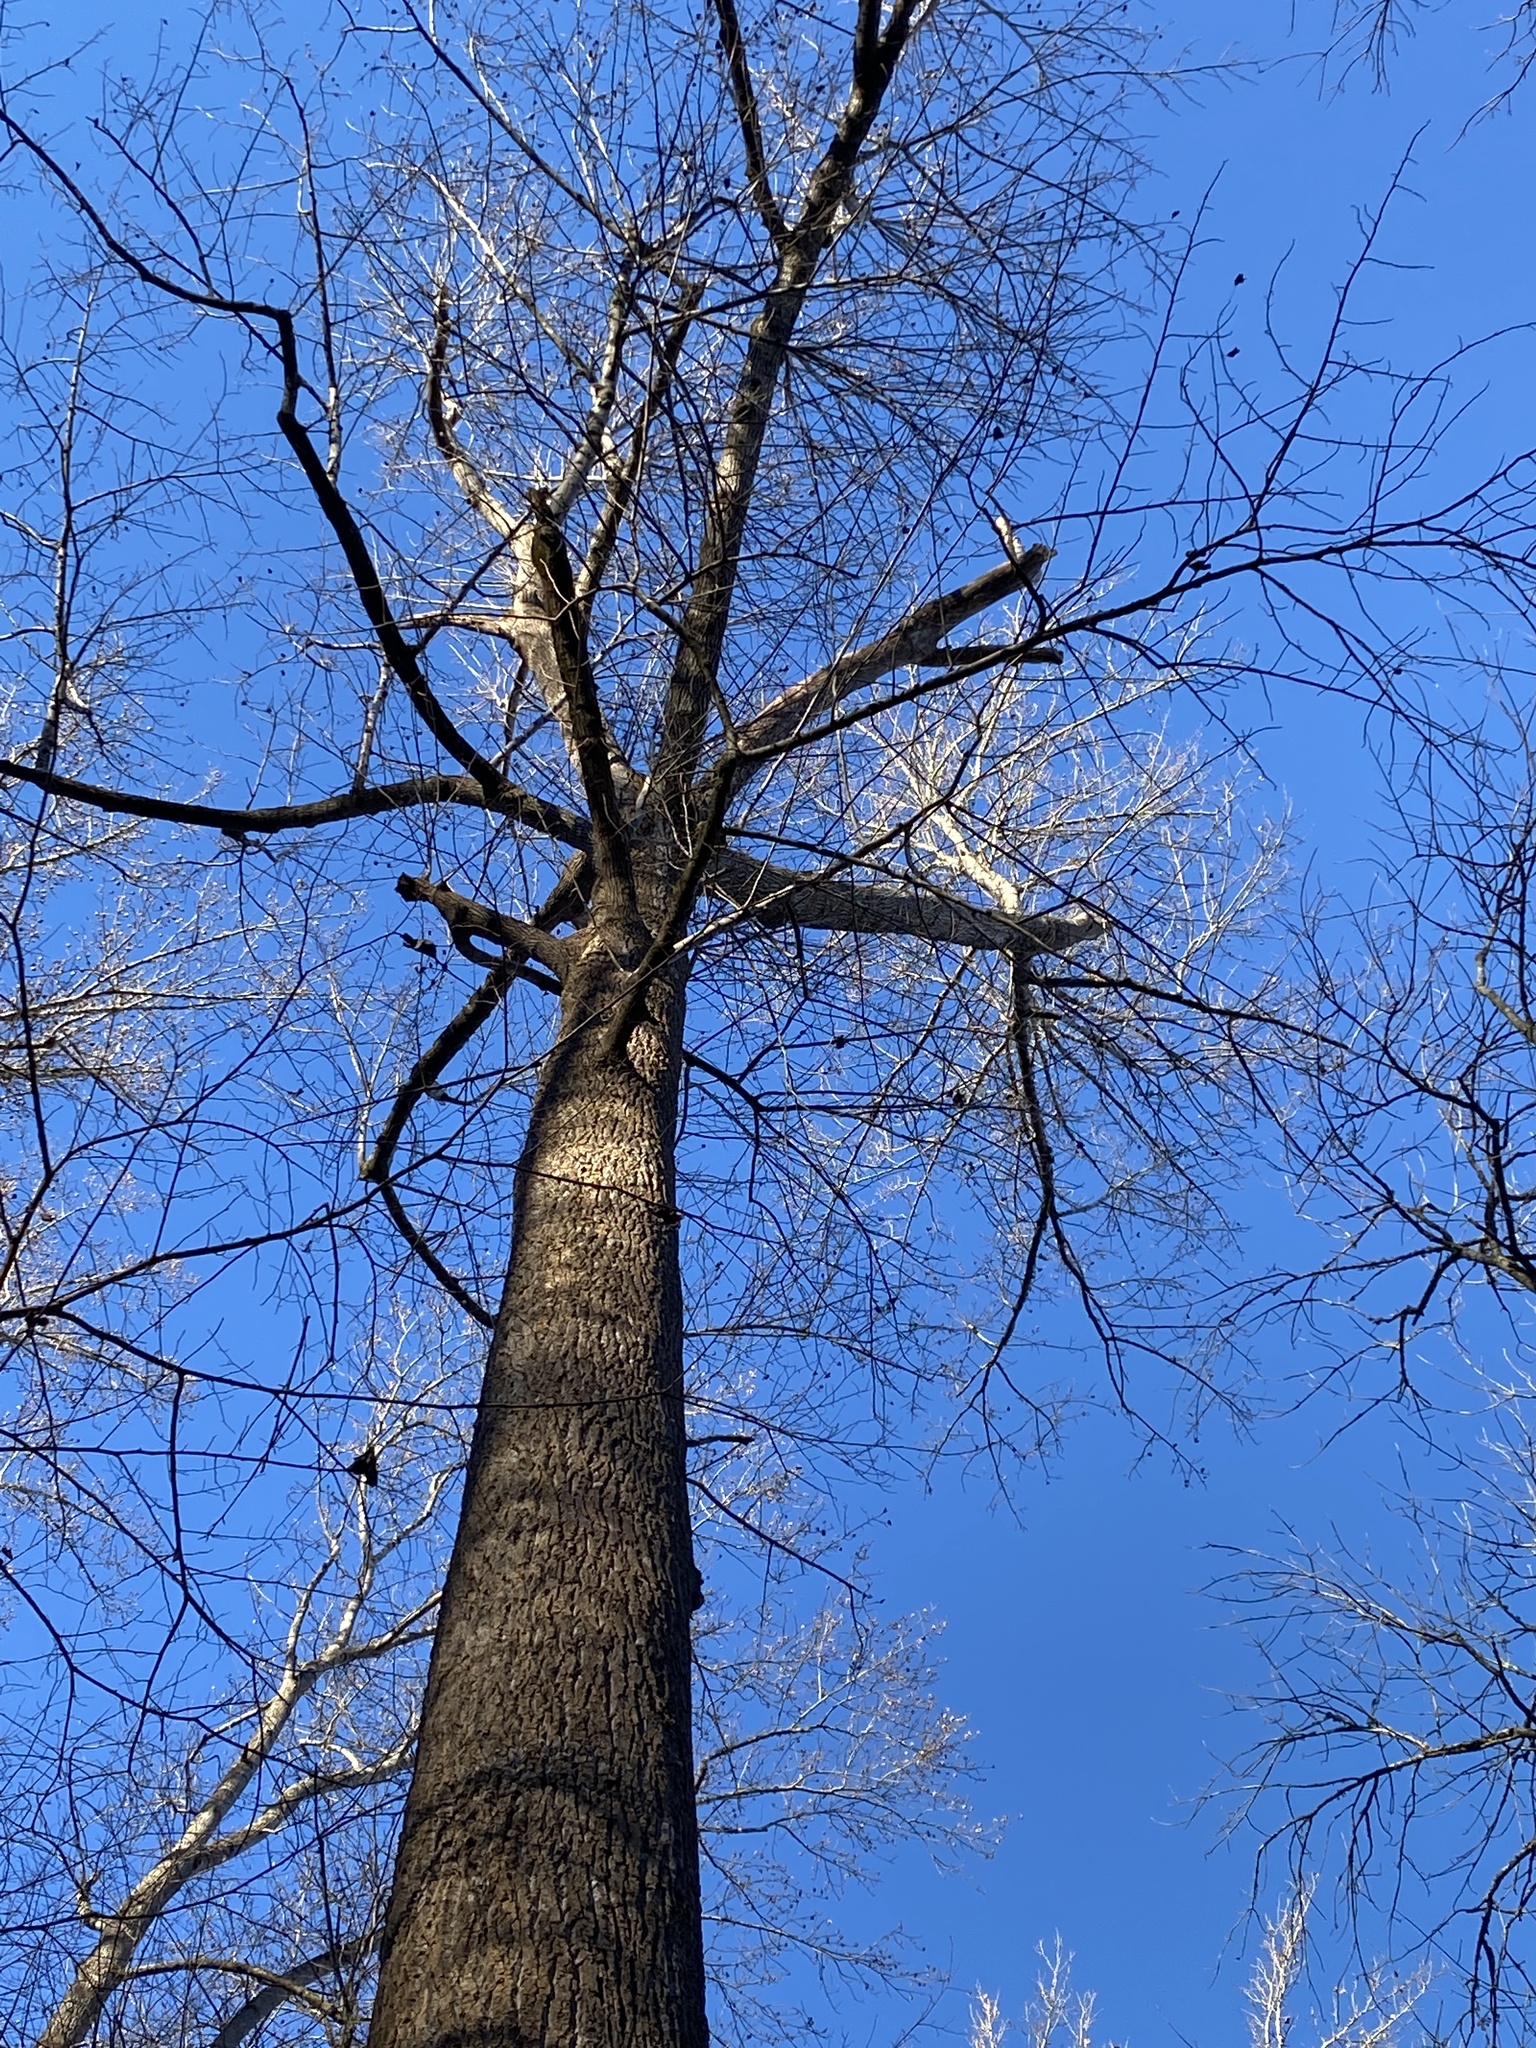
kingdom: Plantae
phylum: Tracheophyta
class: Magnoliopsida
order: Magnoliales
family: Magnoliaceae
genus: Liriodendron
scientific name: Liriodendron tulipifera
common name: Tulip tree
